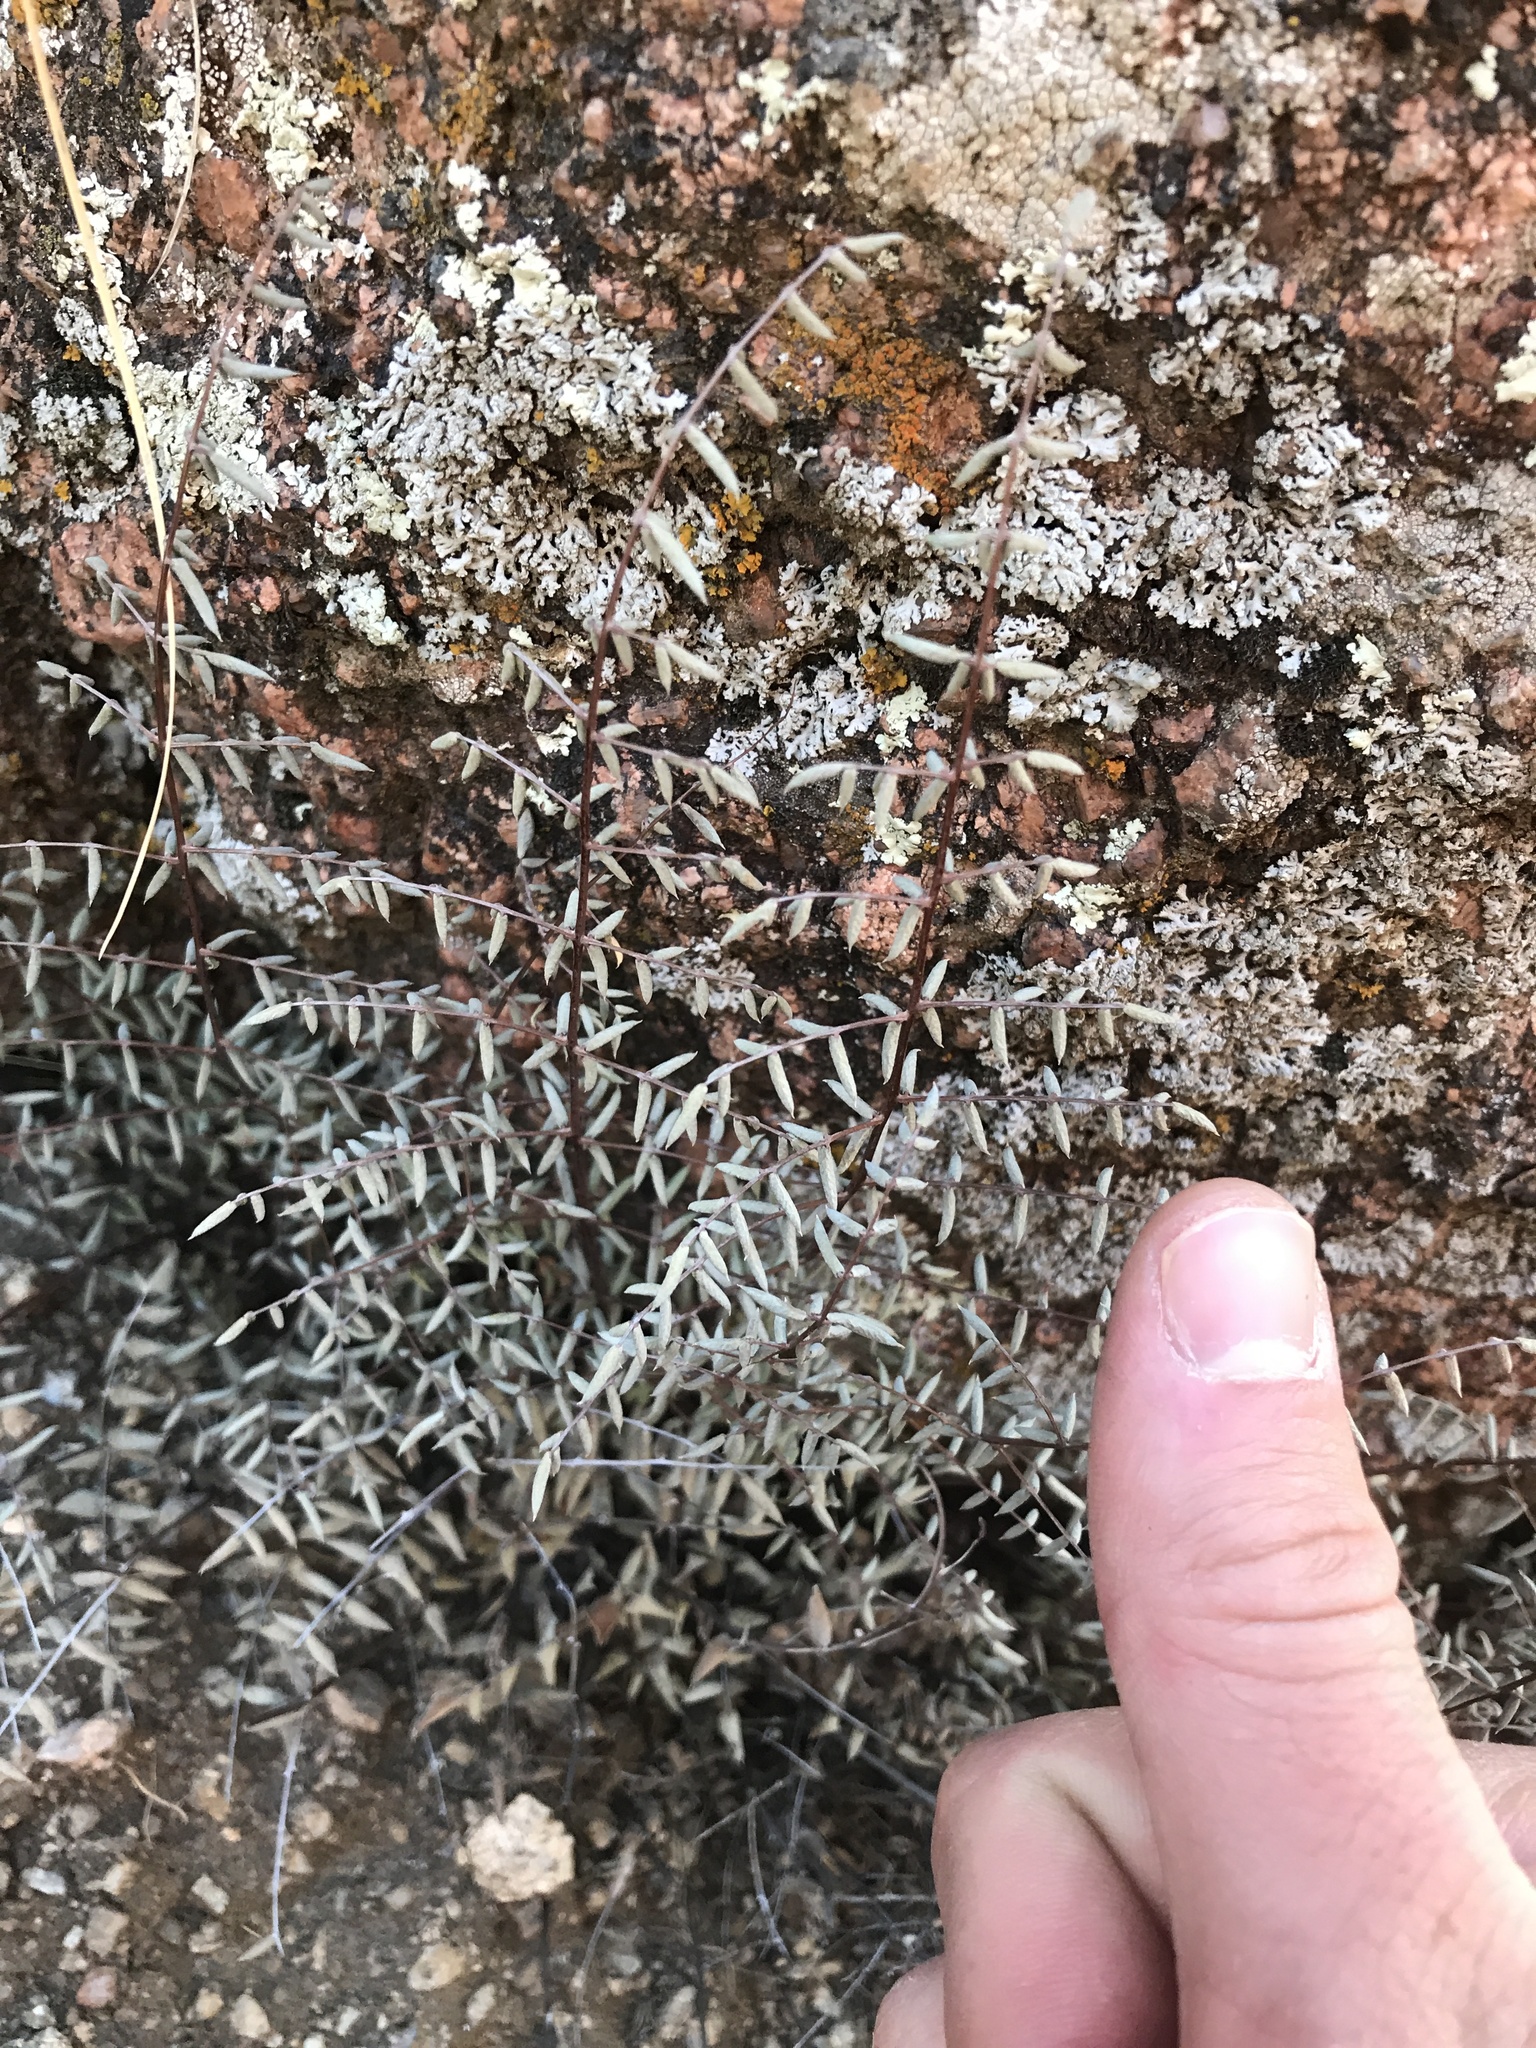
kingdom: Plantae
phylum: Tracheophyta
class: Polypodiopsida
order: Polypodiales
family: Pteridaceae
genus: Pellaea
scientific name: Pellaea truncata
